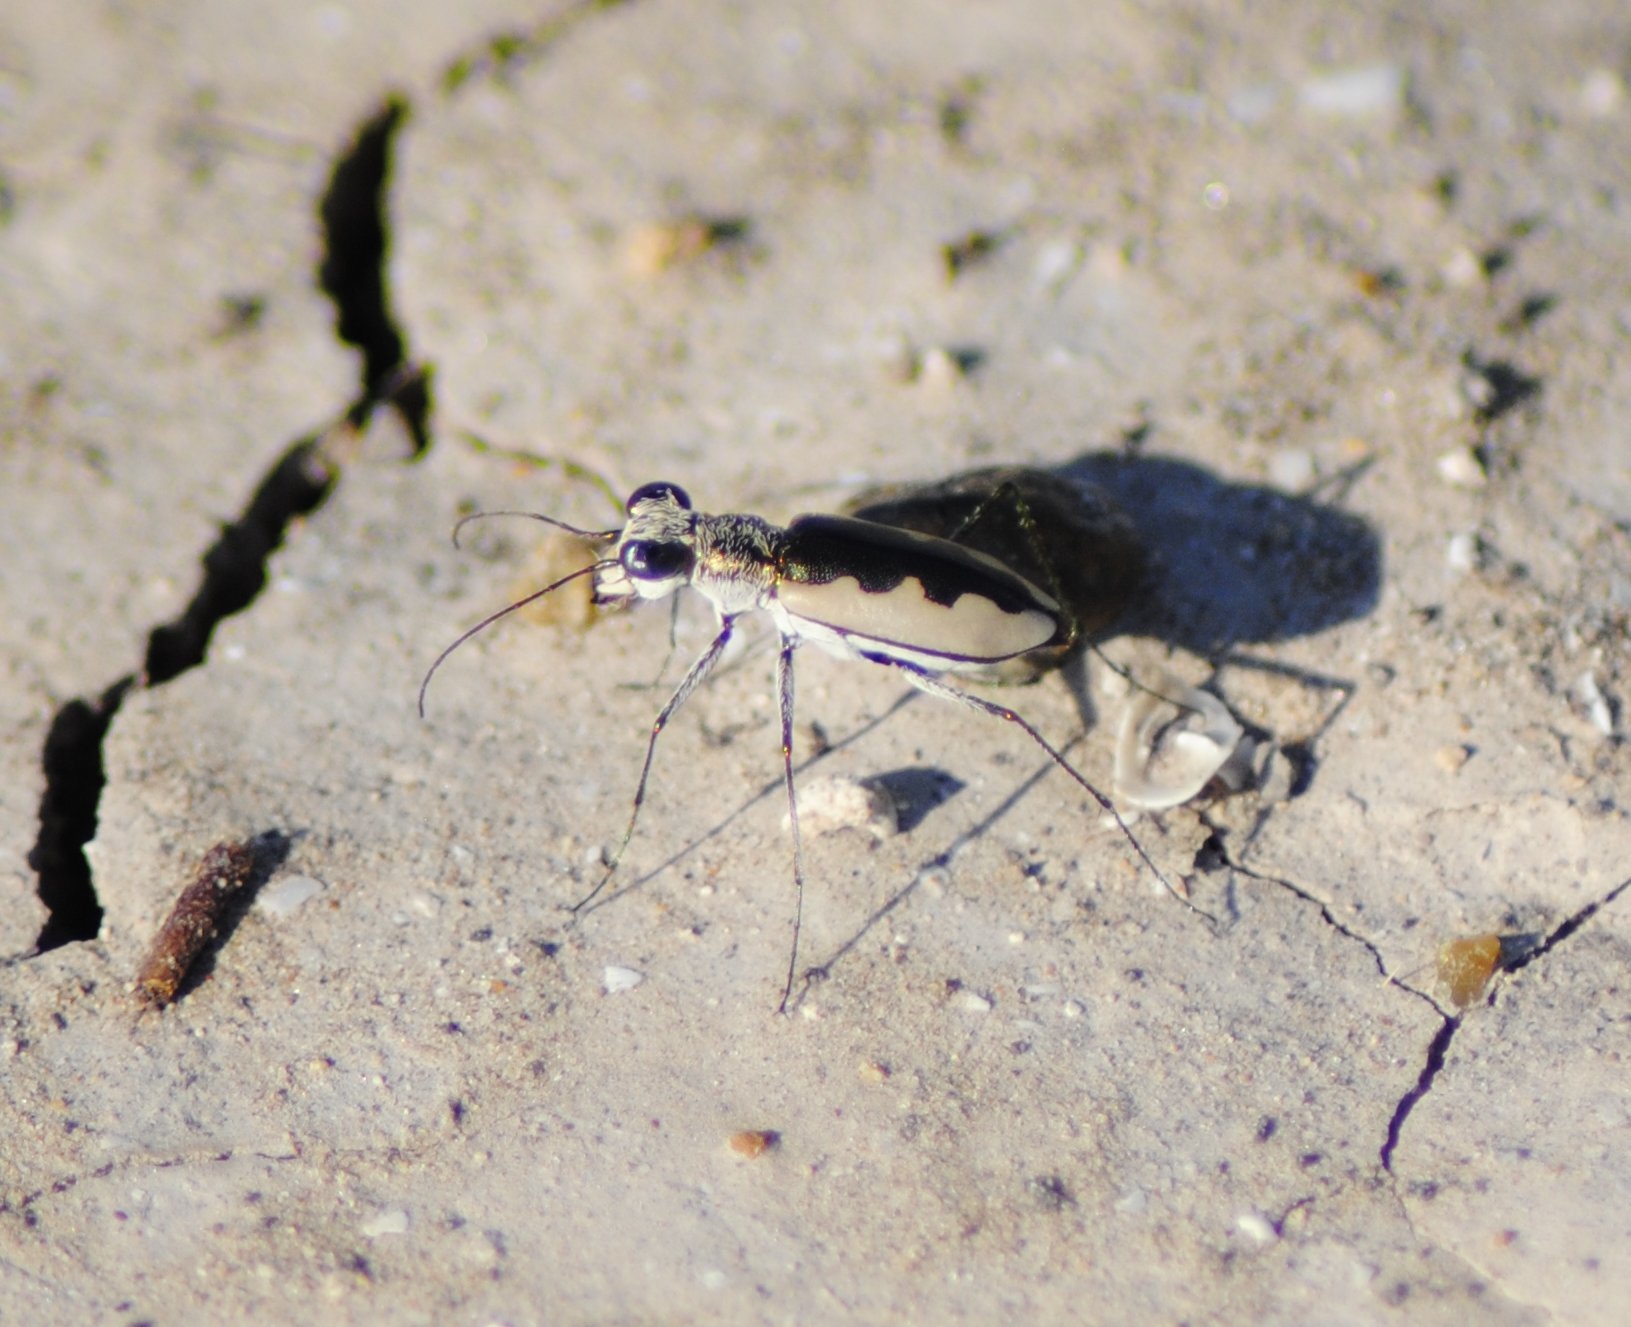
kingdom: Animalia
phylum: Arthropoda
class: Insecta
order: Coleoptera
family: Carabidae
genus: Eunota
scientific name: Eunota togata
